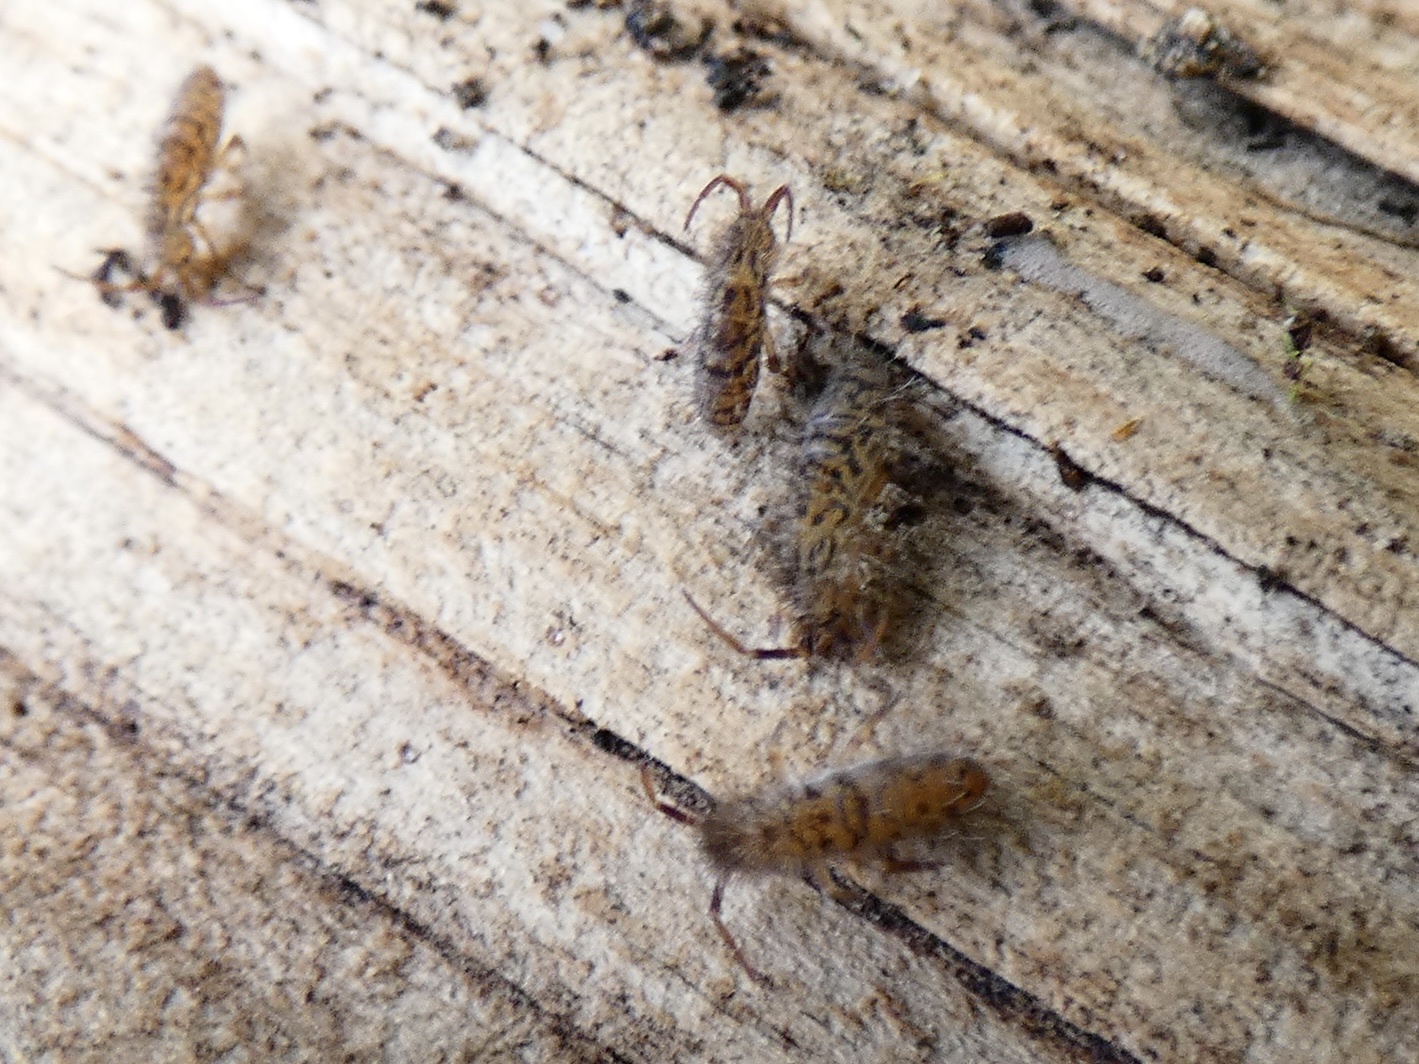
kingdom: Animalia
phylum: Arthropoda
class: Collembola
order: Entomobryomorpha
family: Orchesellidae
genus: Orchesella
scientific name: Orchesella villosa
